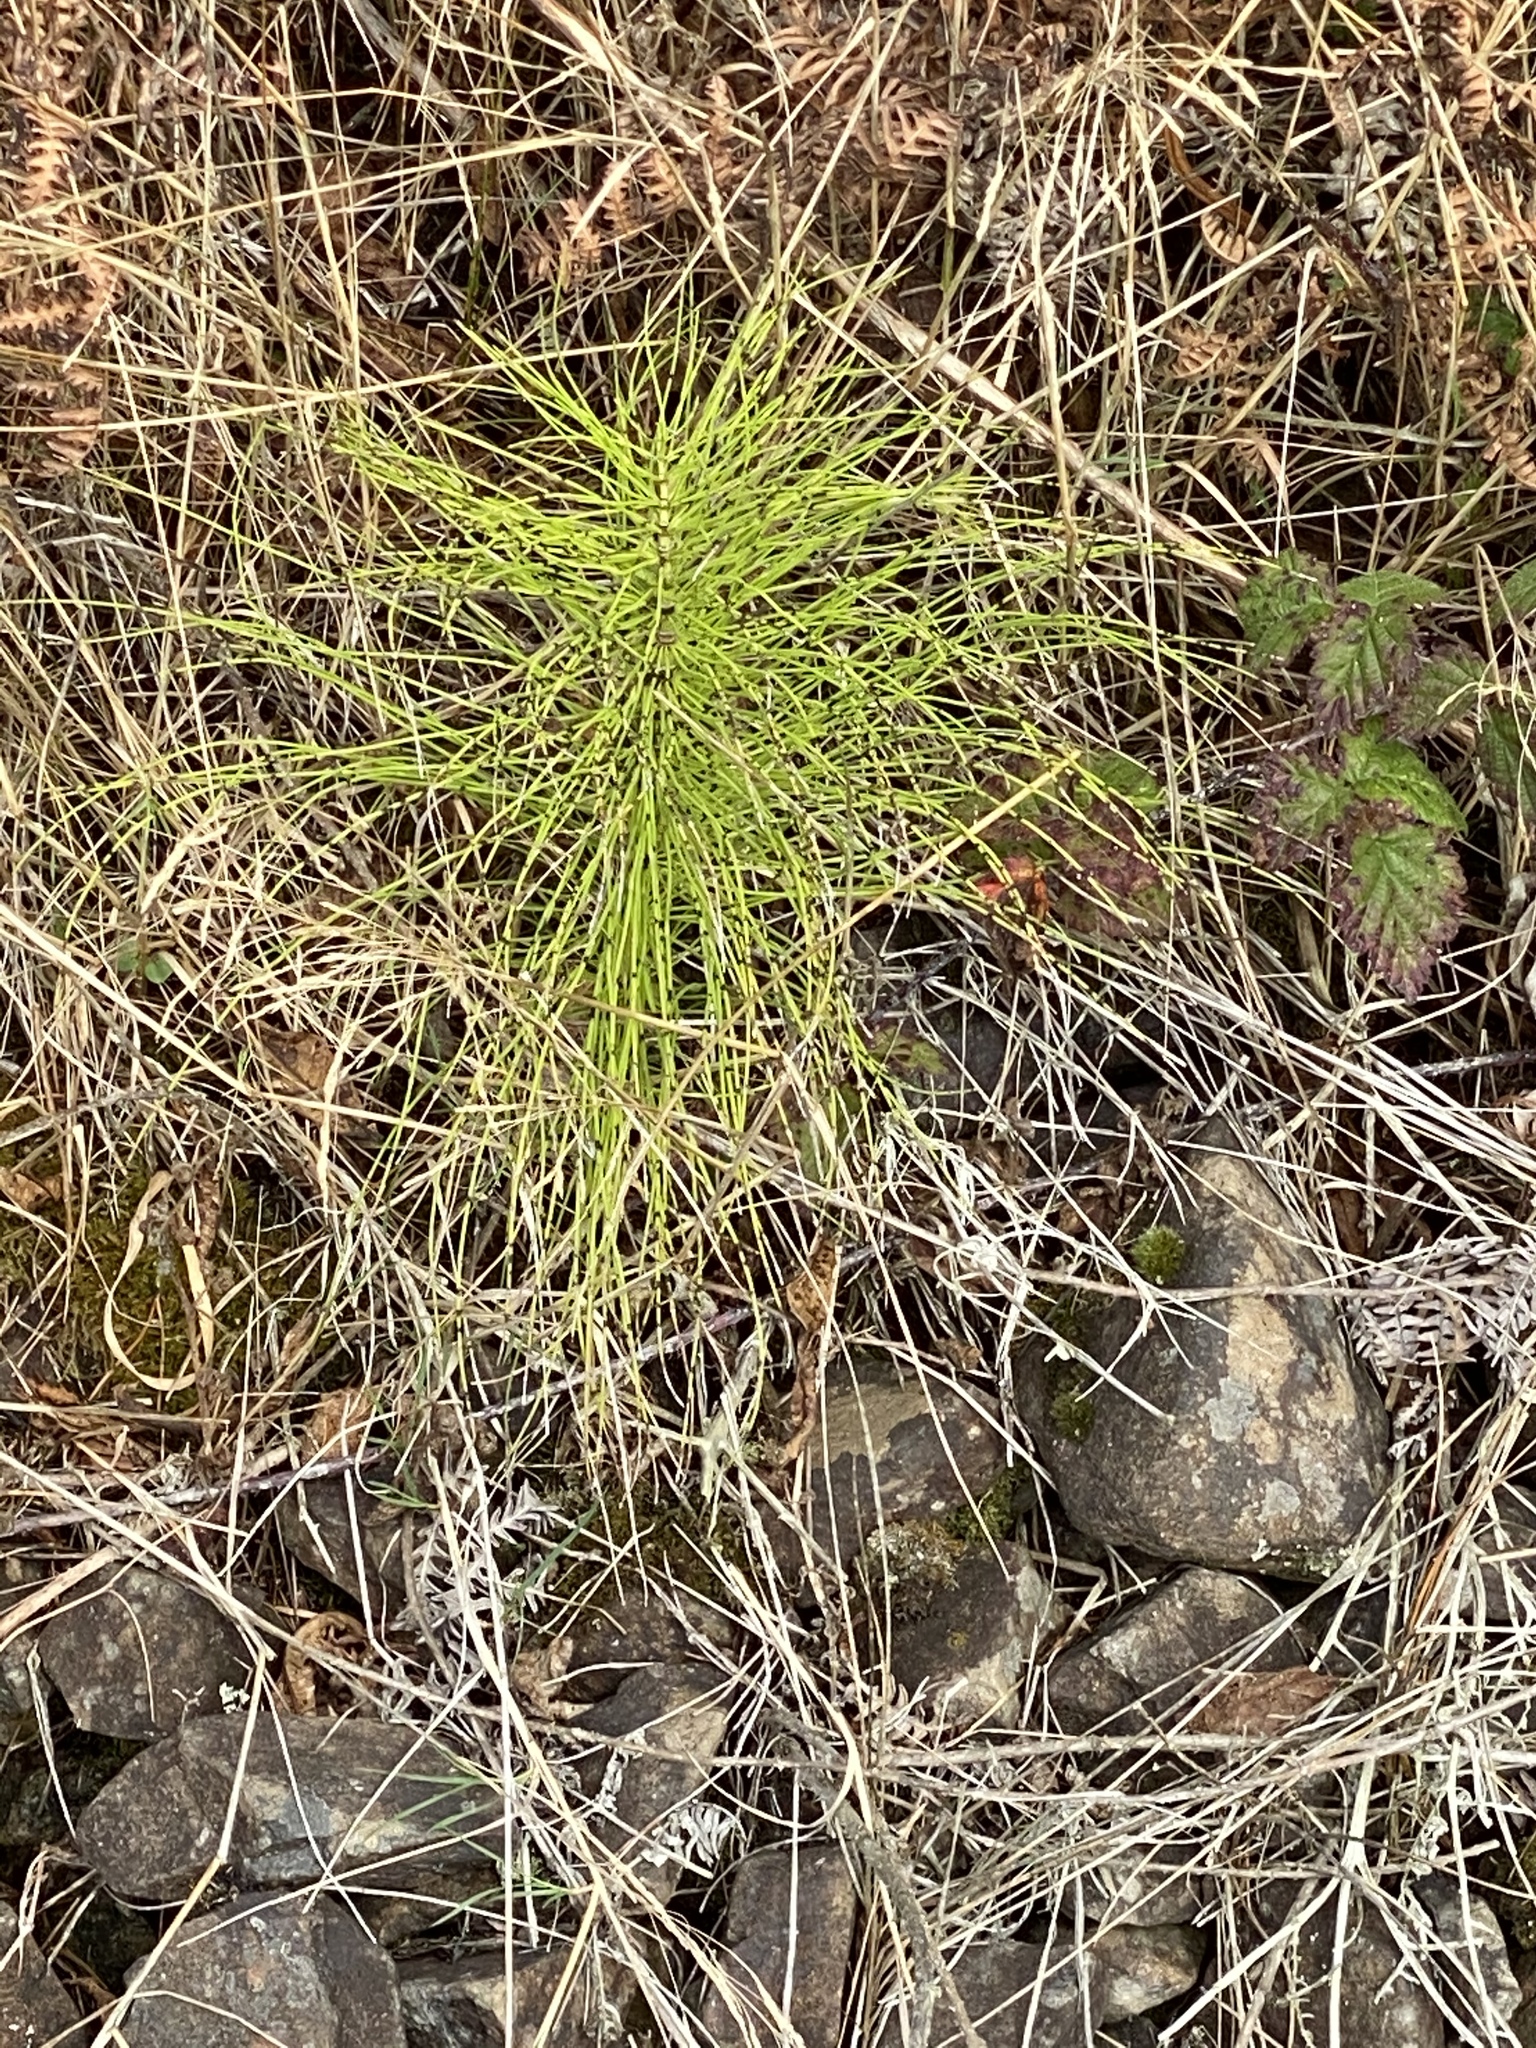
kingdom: Plantae
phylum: Tracheophyta
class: Polypodiopsida
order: Equisetales
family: Equisetaceae
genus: Equisetum
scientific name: Equisetum braunii
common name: Braun's horsetail
